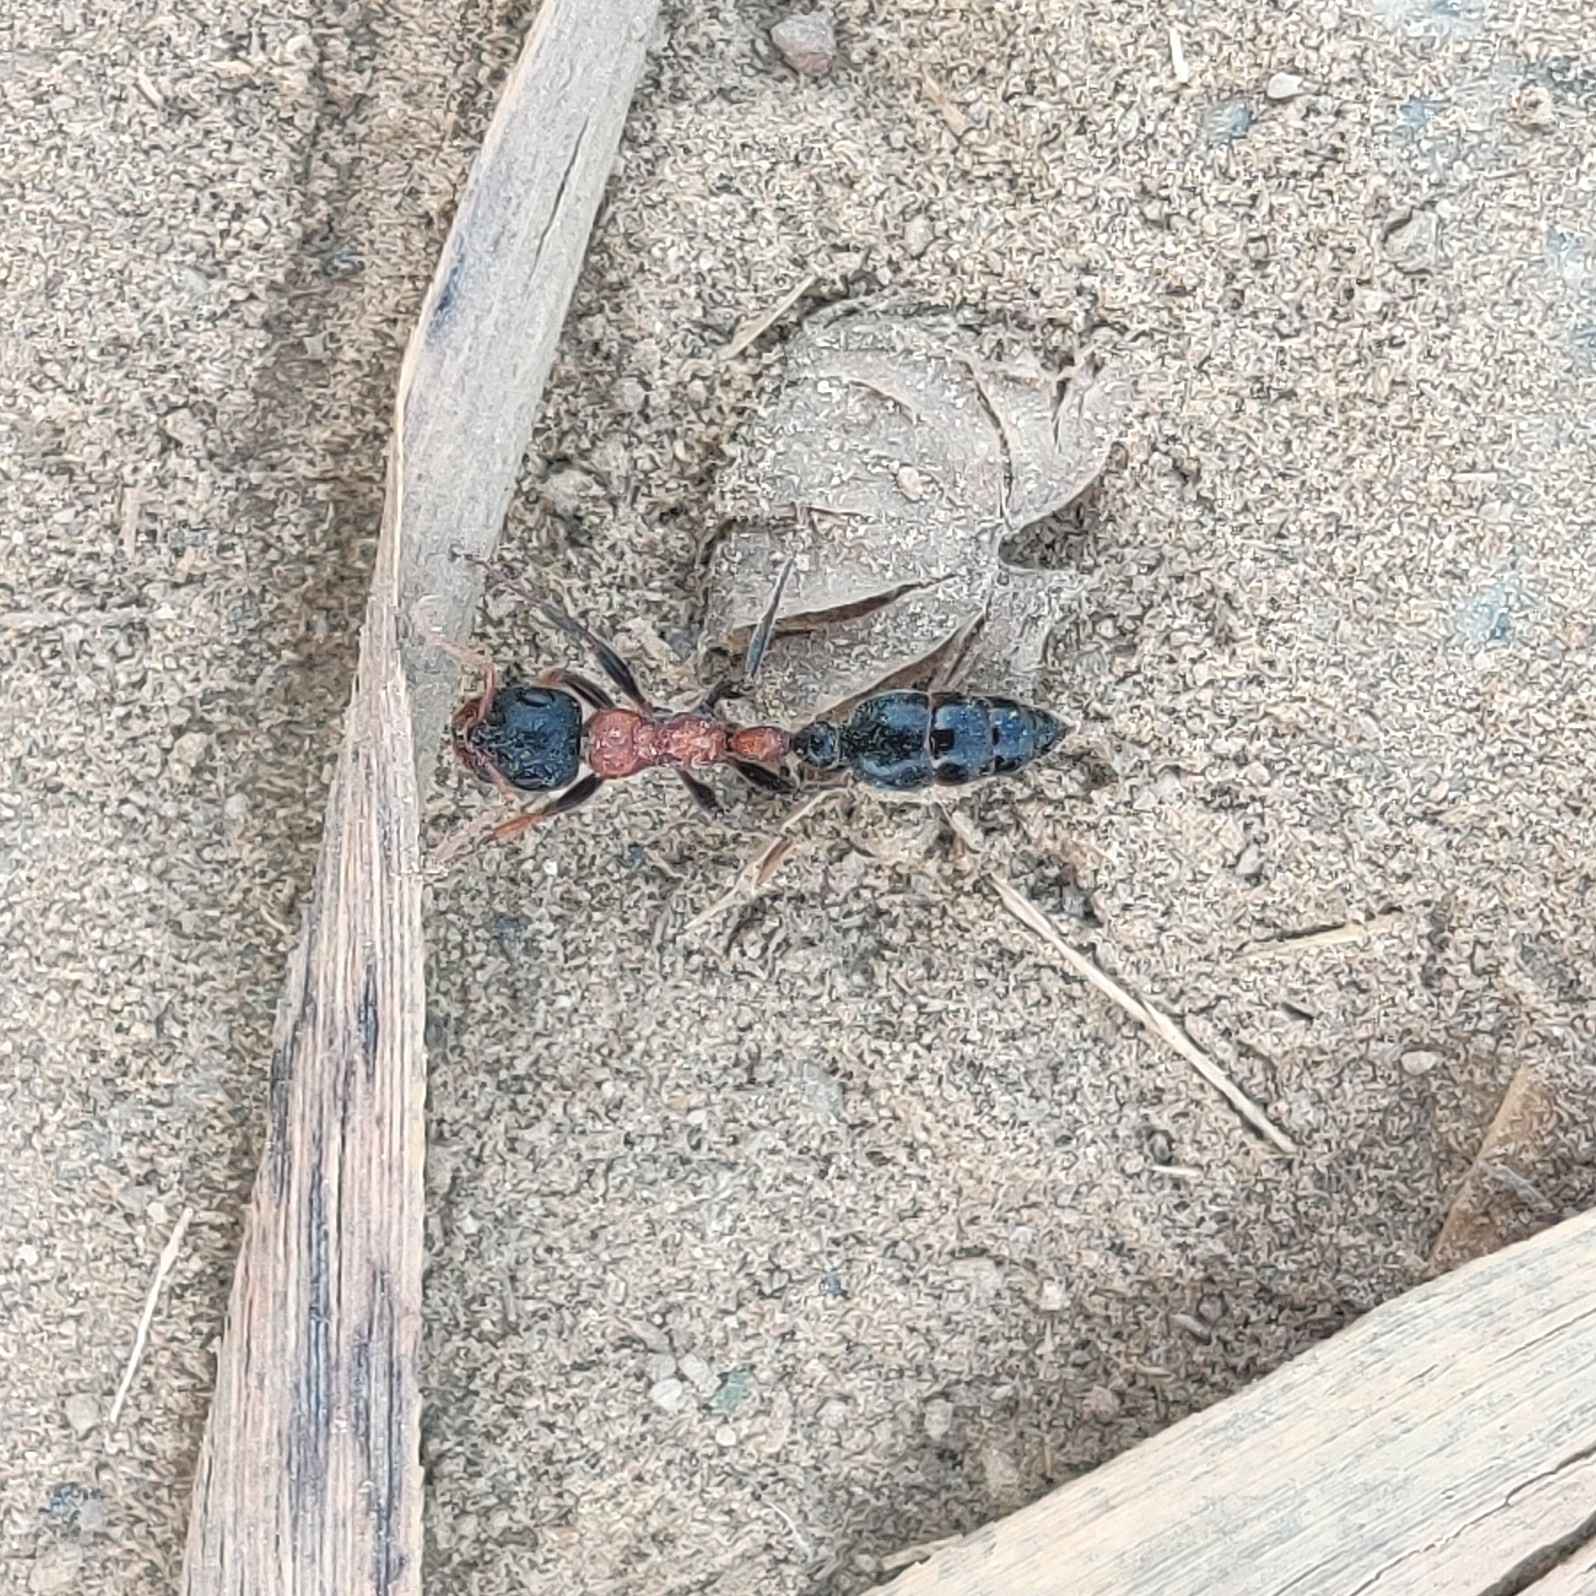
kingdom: Animalia
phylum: Arthropoda
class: Insecta
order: Hymenoptera
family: Formicidae
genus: Tetraponera
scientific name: Tetraponera rufonigra
